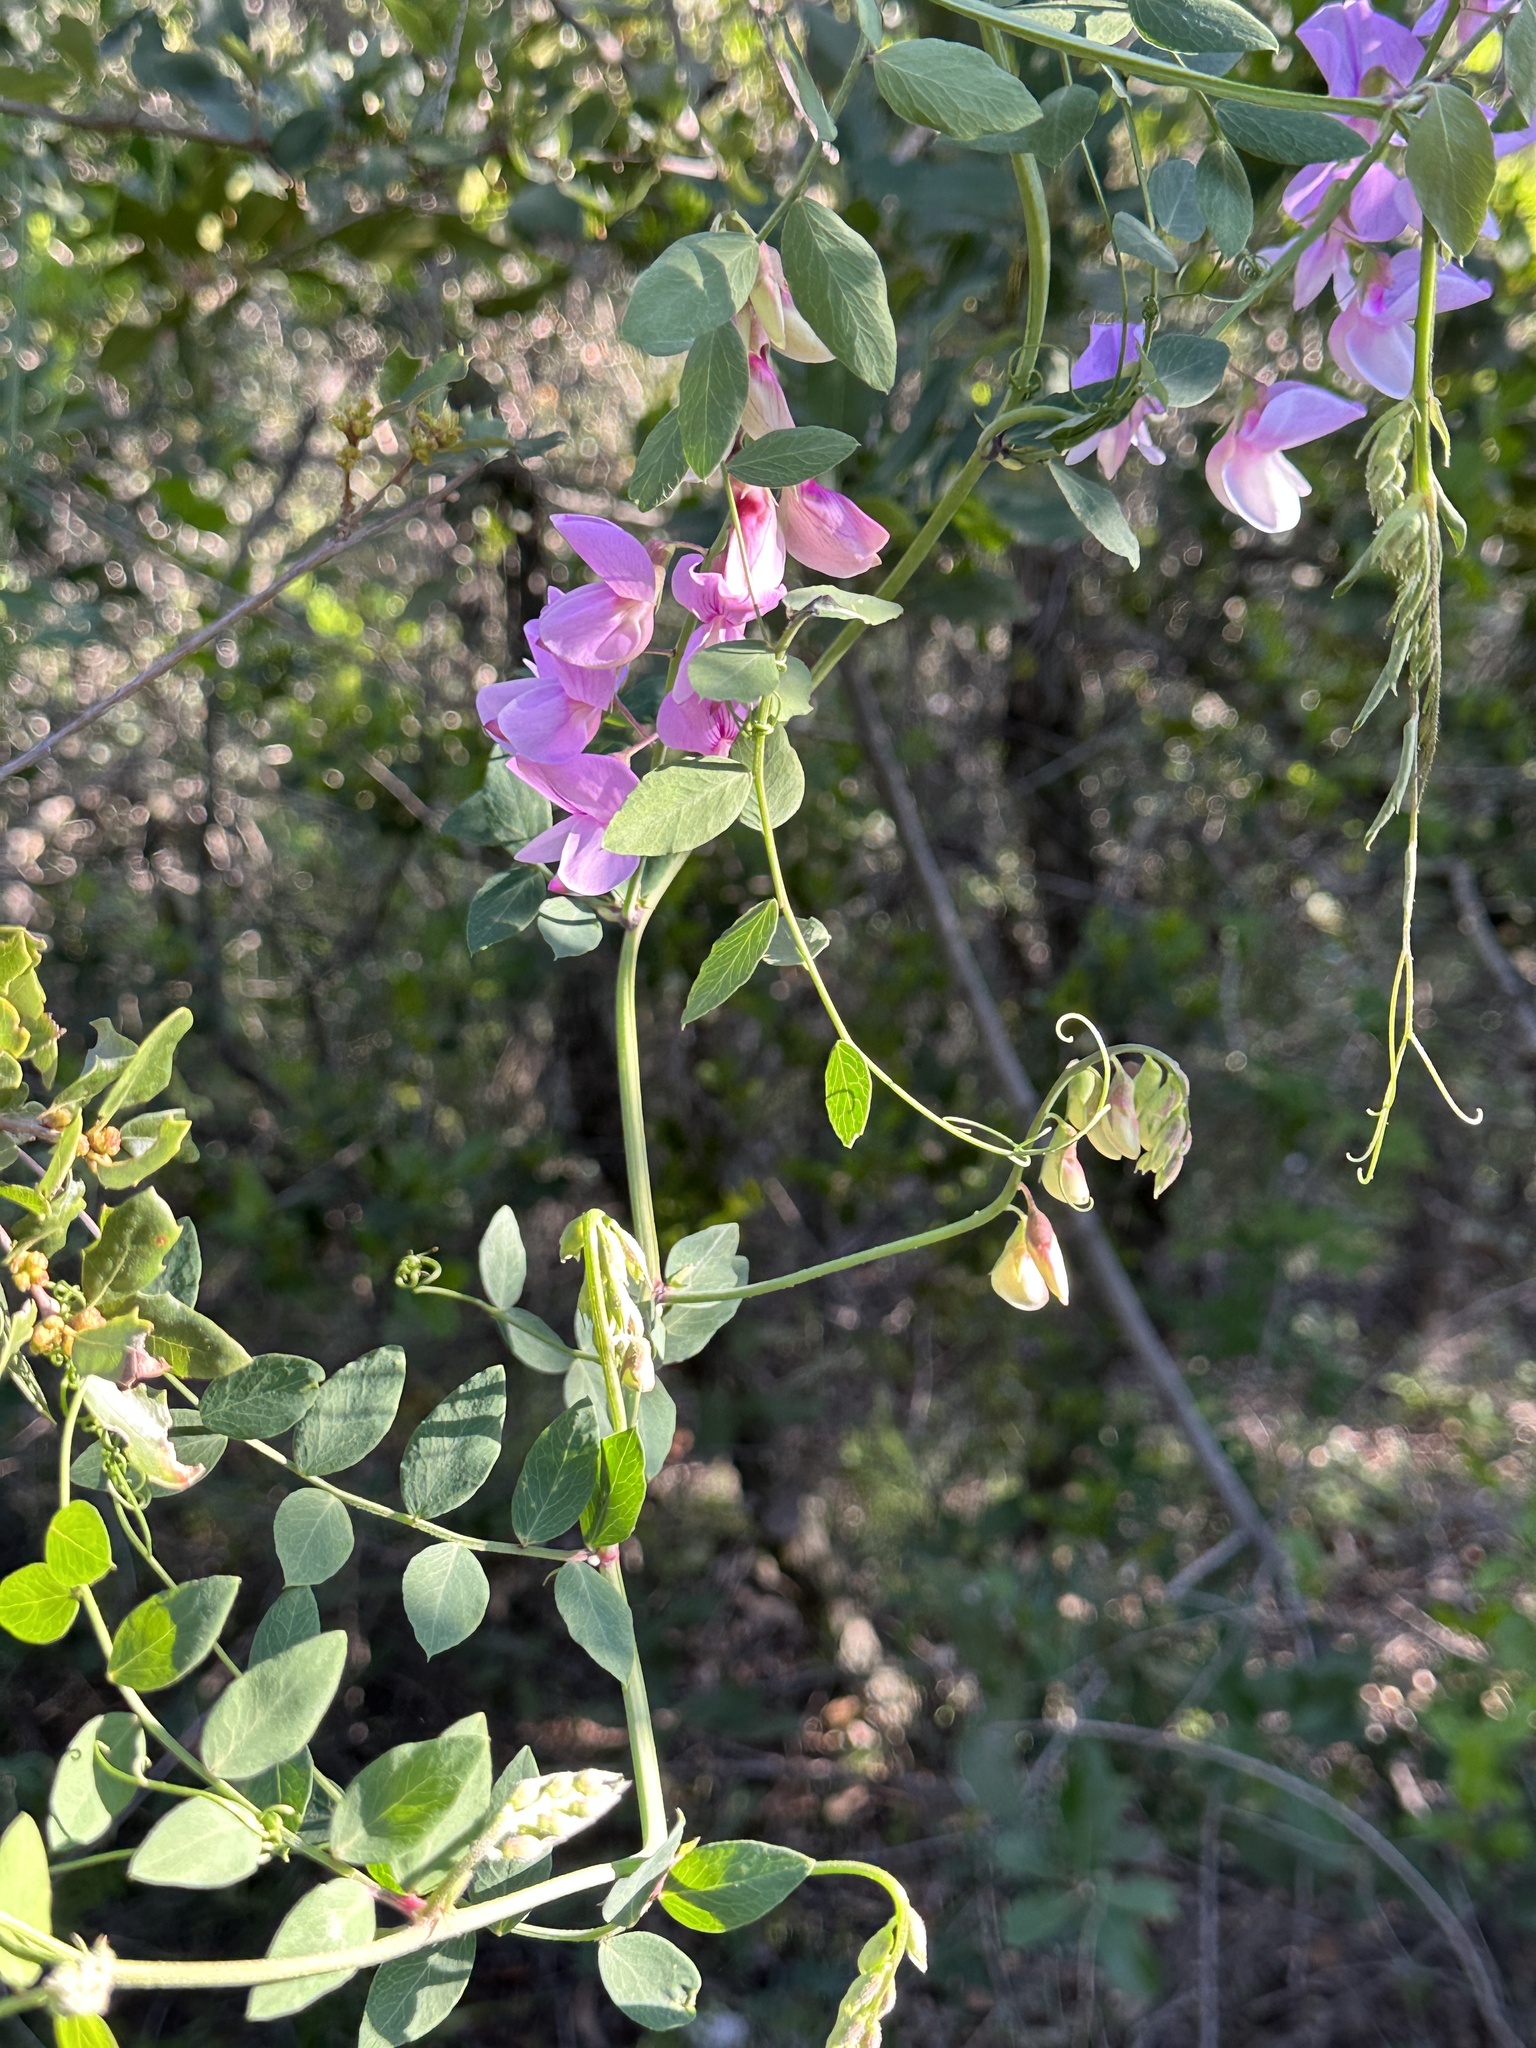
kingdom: Plantae
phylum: Tracheophyta
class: Magnoliopsida
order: Fabales
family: Fabaceae
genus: Lathyrus
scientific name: Lathyrus vestitus
